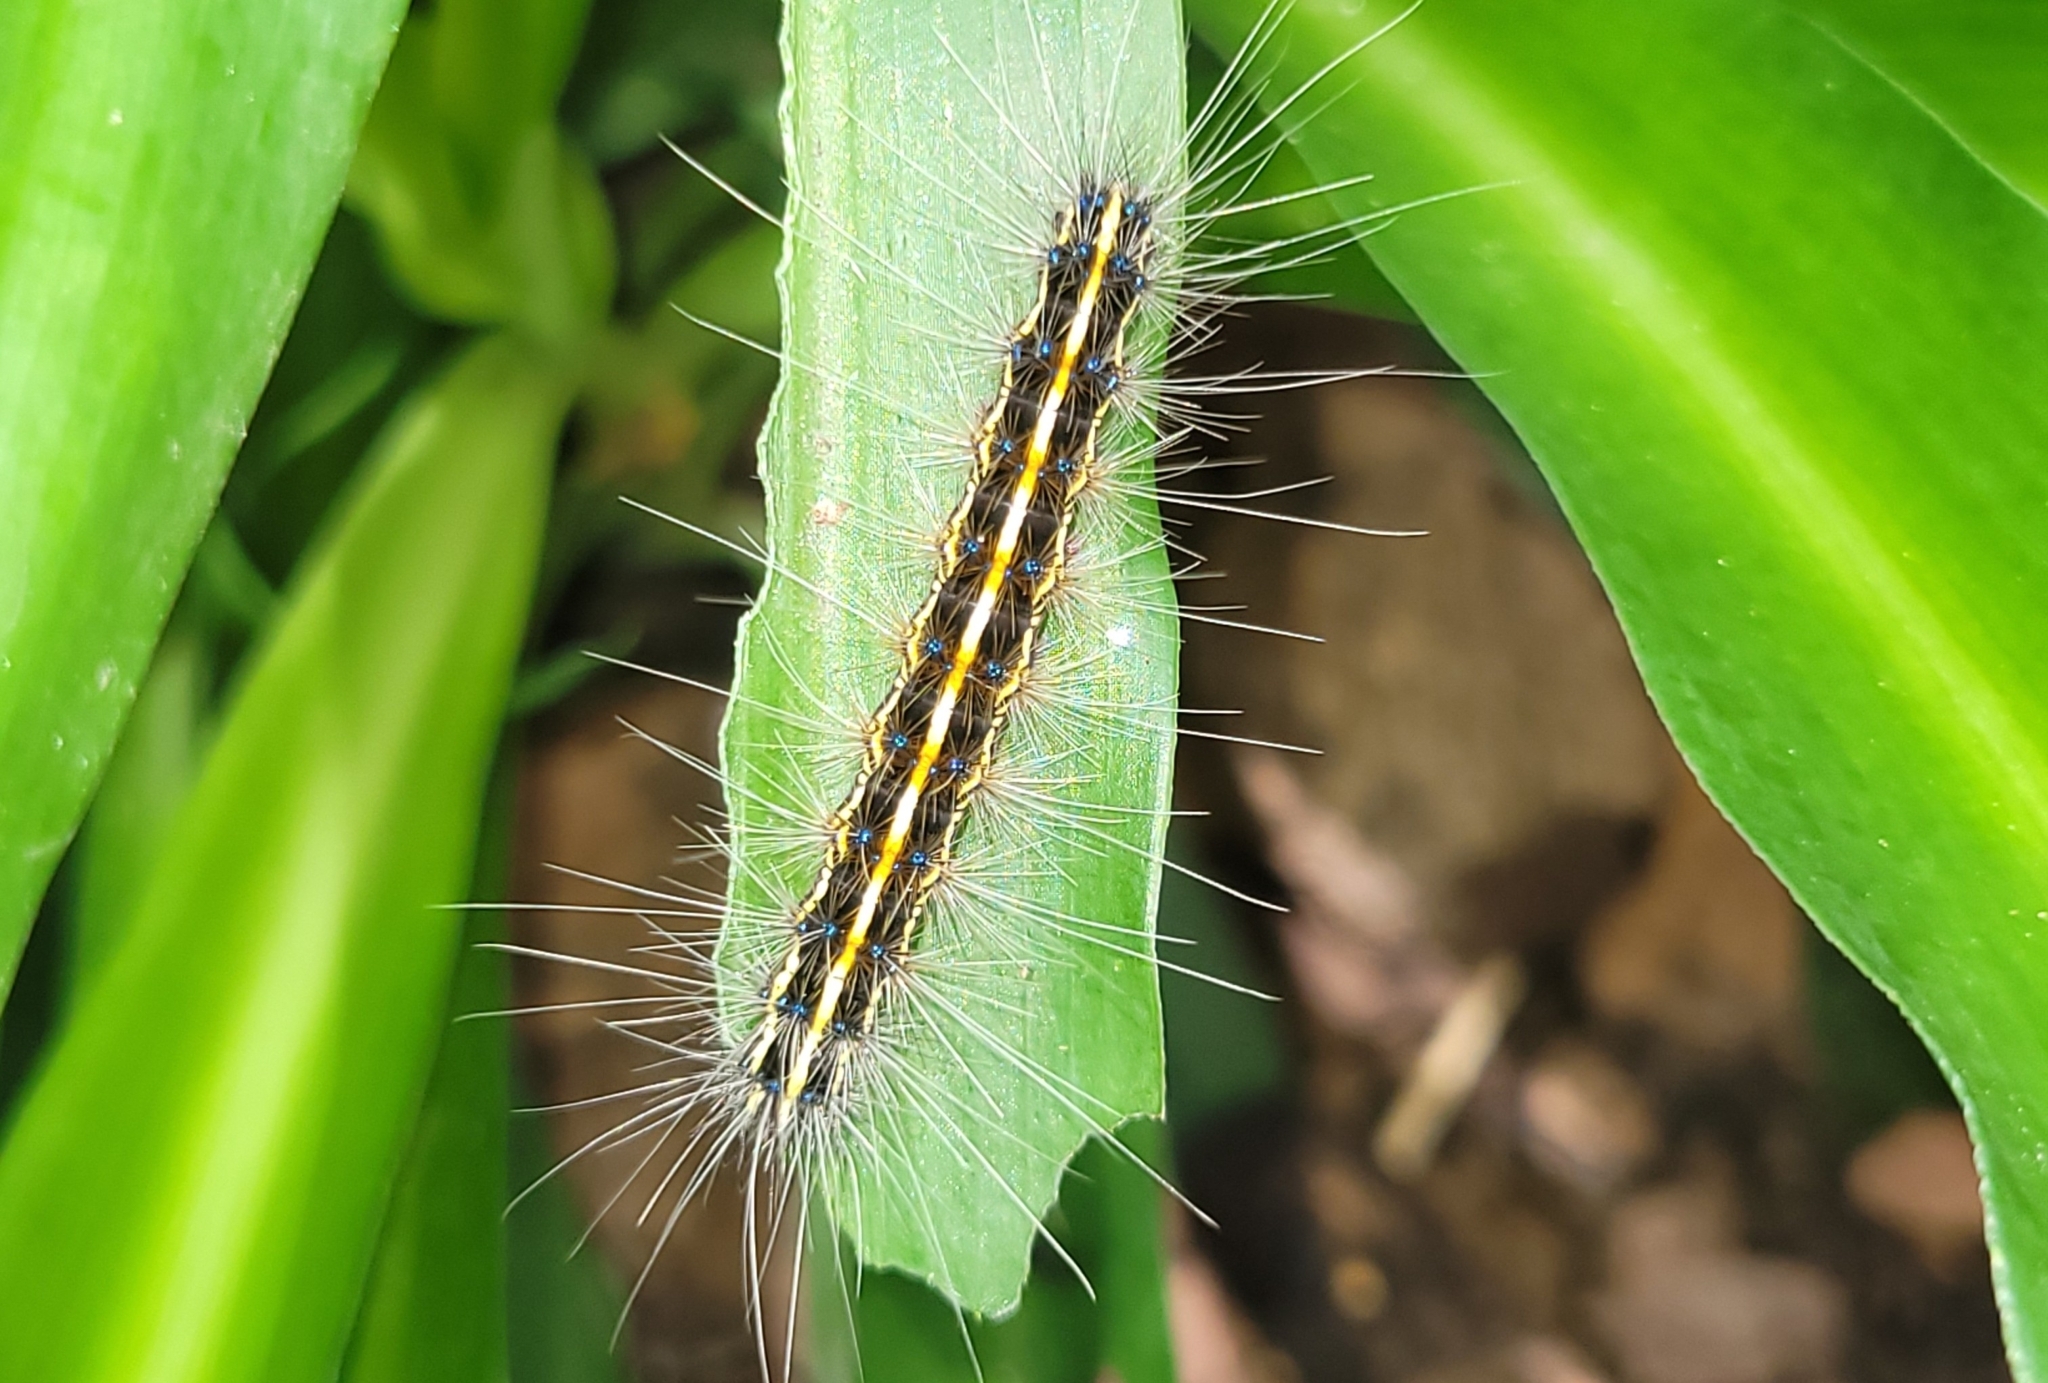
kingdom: Animalia
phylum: Arthropoda
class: Insecta
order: Lepidoptera
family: Erebidae
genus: Leucaloa
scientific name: Leucaloa eugraphica
